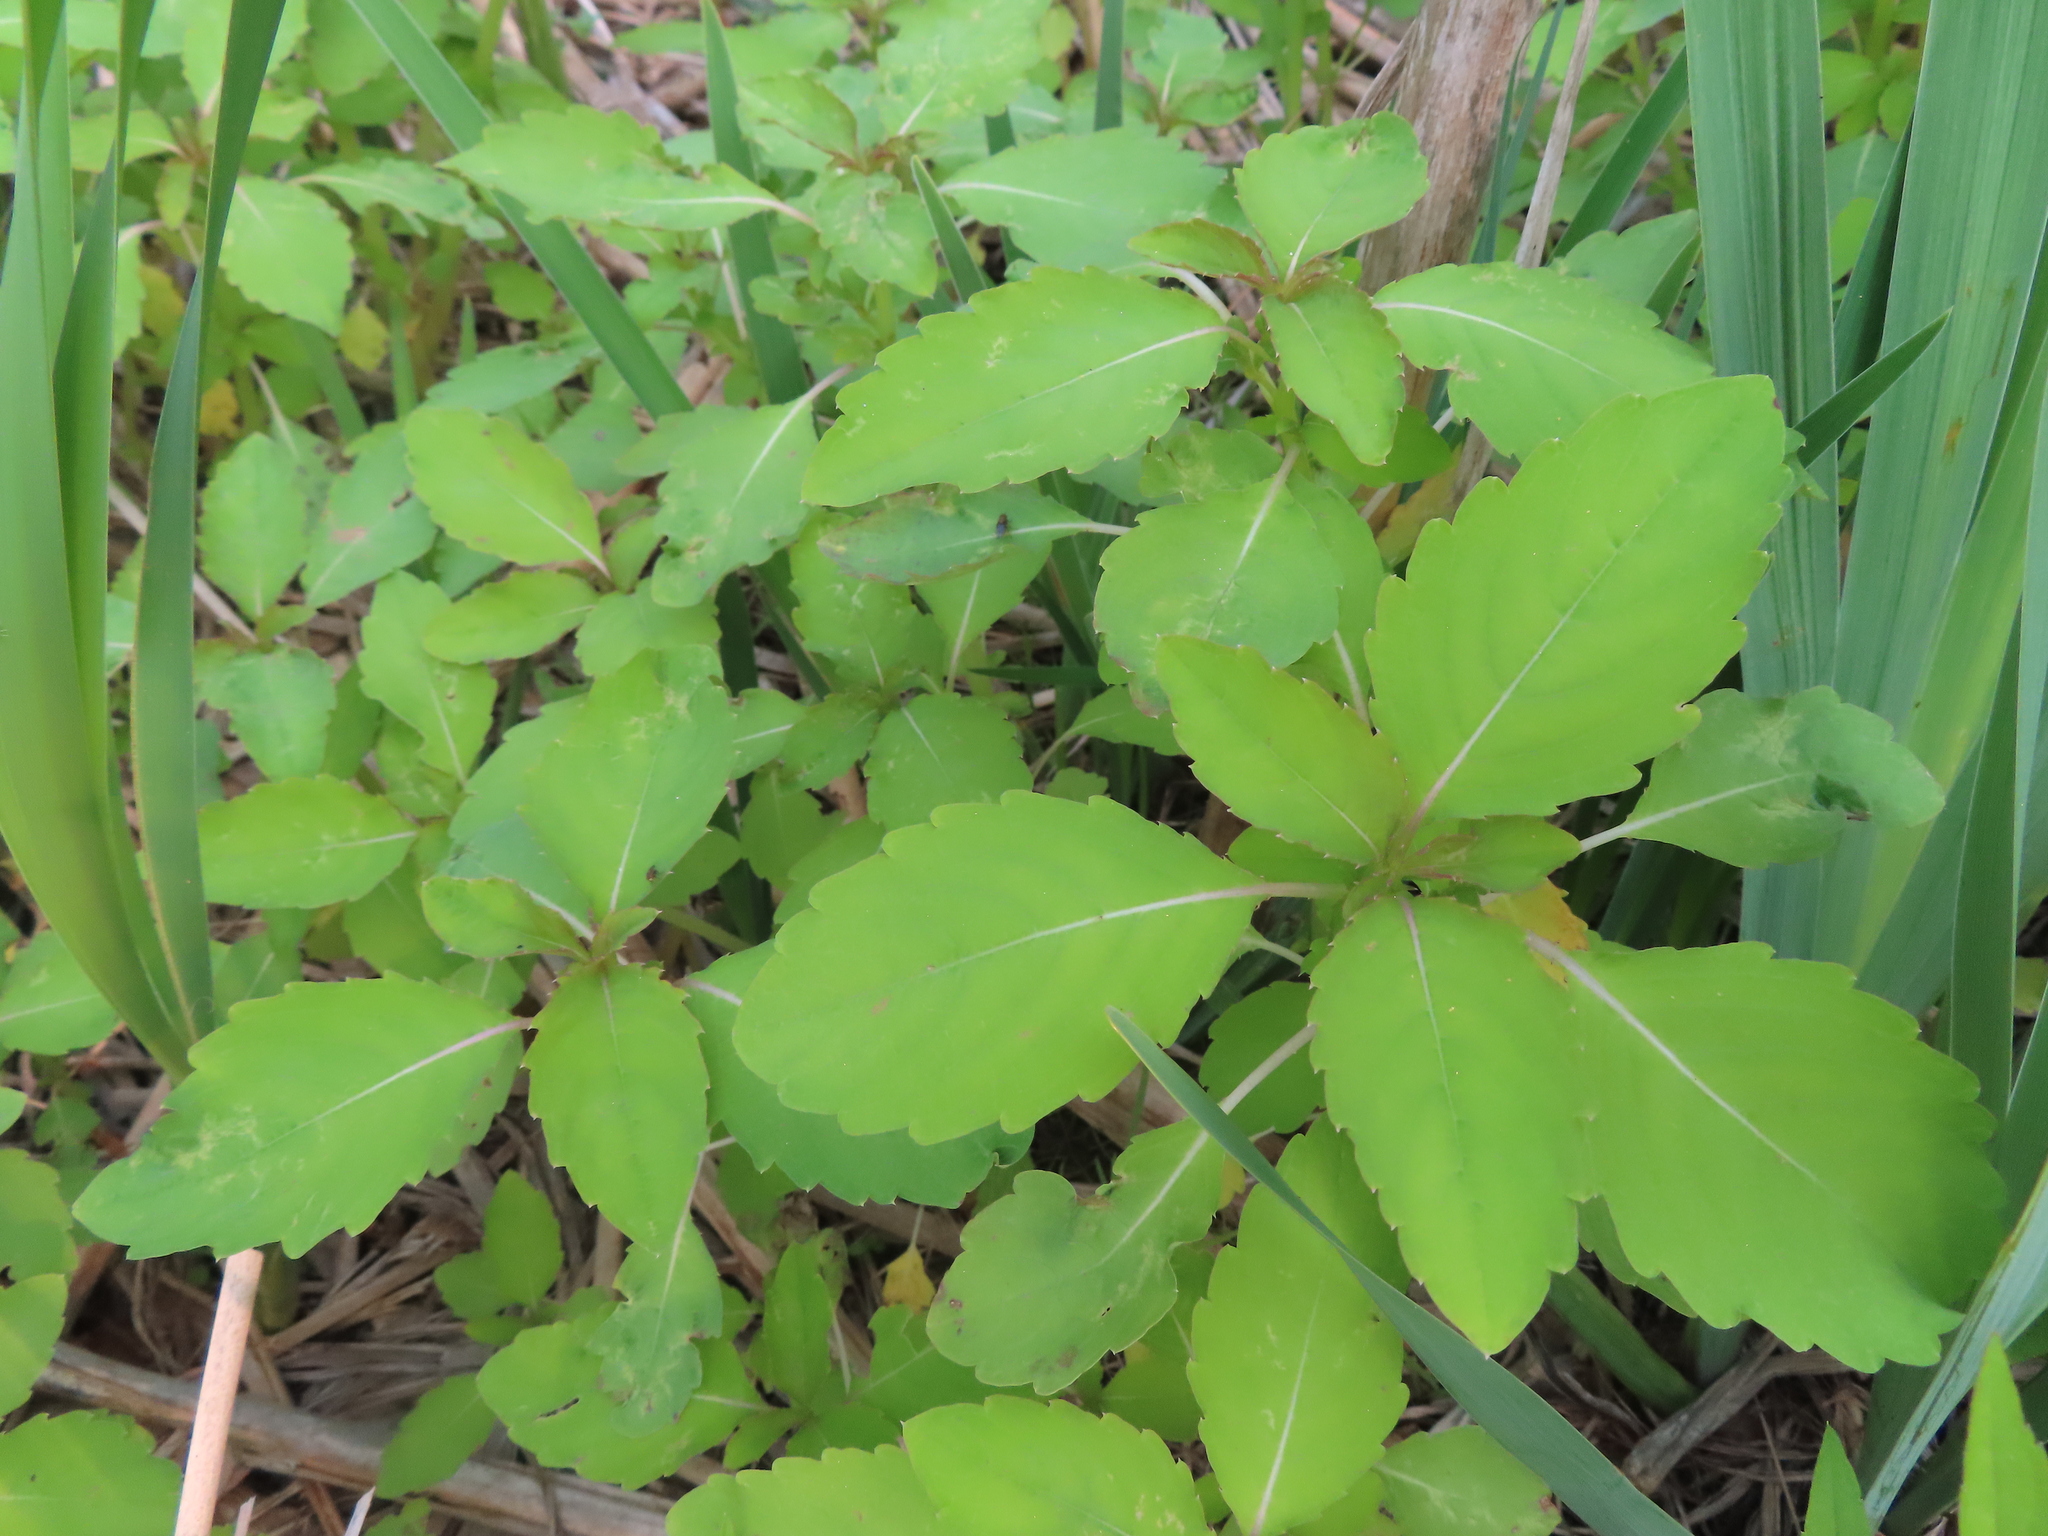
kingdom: Plantae
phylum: Tracheophyta
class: Magnoliopsida
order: Ericales
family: Balsaminaceae
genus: Impatiens
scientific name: Impatiens capensis
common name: Orange balsam
